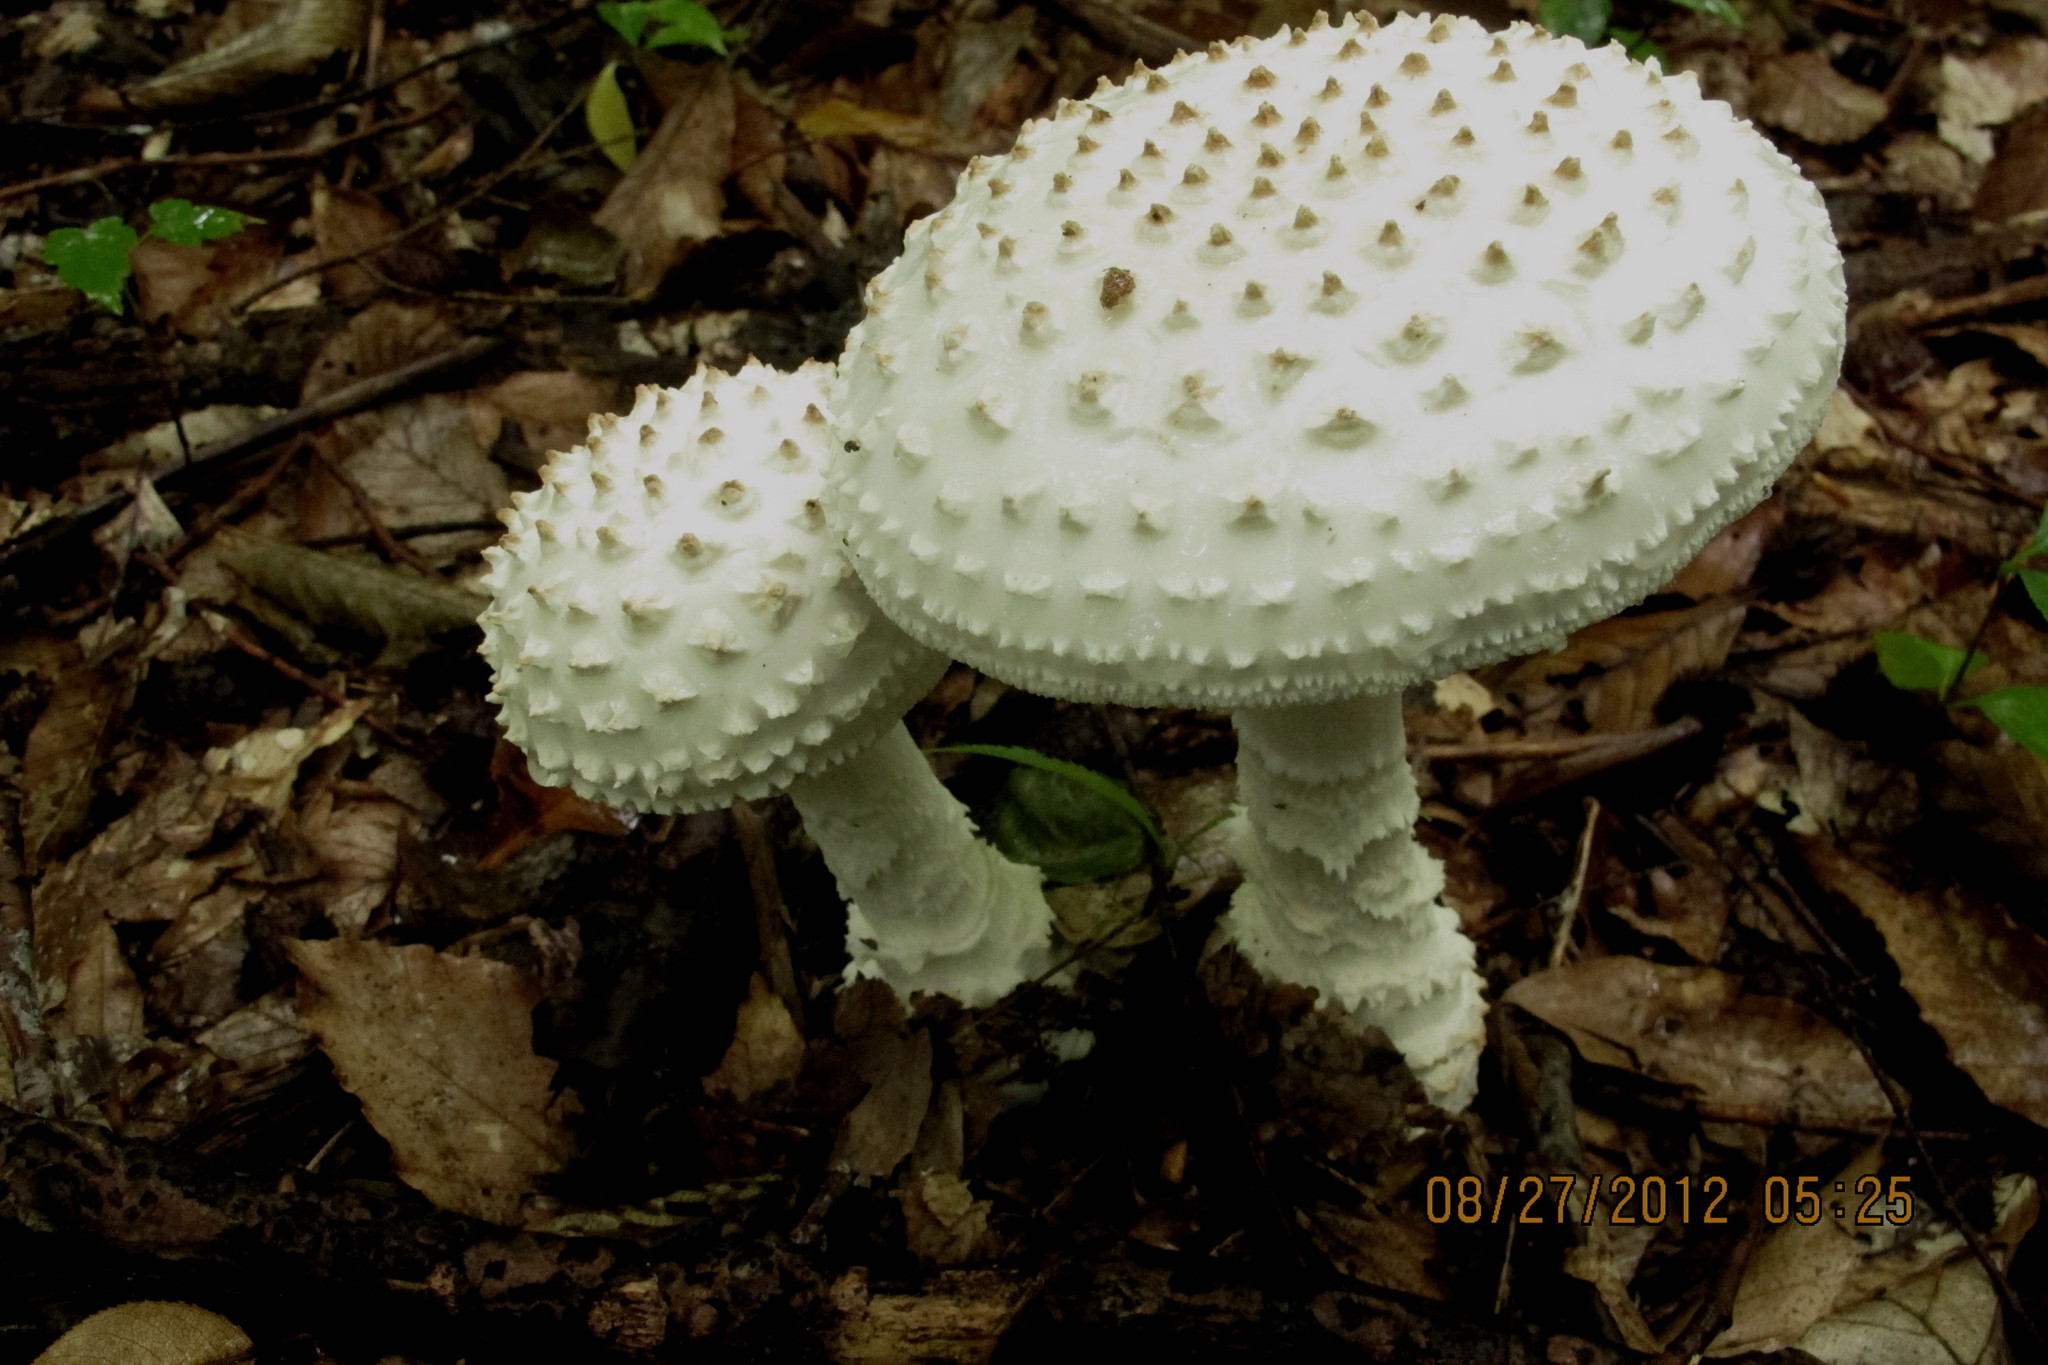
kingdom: Fungi
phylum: Basidiomycota
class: Agaricomycetes
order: Agaricales
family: Amanitaceae
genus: Amanita
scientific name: Amanita cokeri
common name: Coker's amanita
